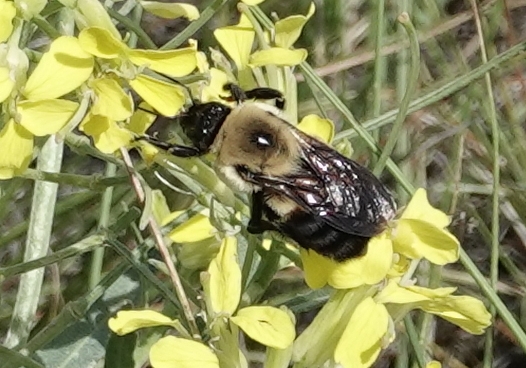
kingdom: Animalia
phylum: Arthropoda
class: Insecta
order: Hymenoptera
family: Apidae
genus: Bombus
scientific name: Bombus griseocollis
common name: Brown-belted bumble bee
